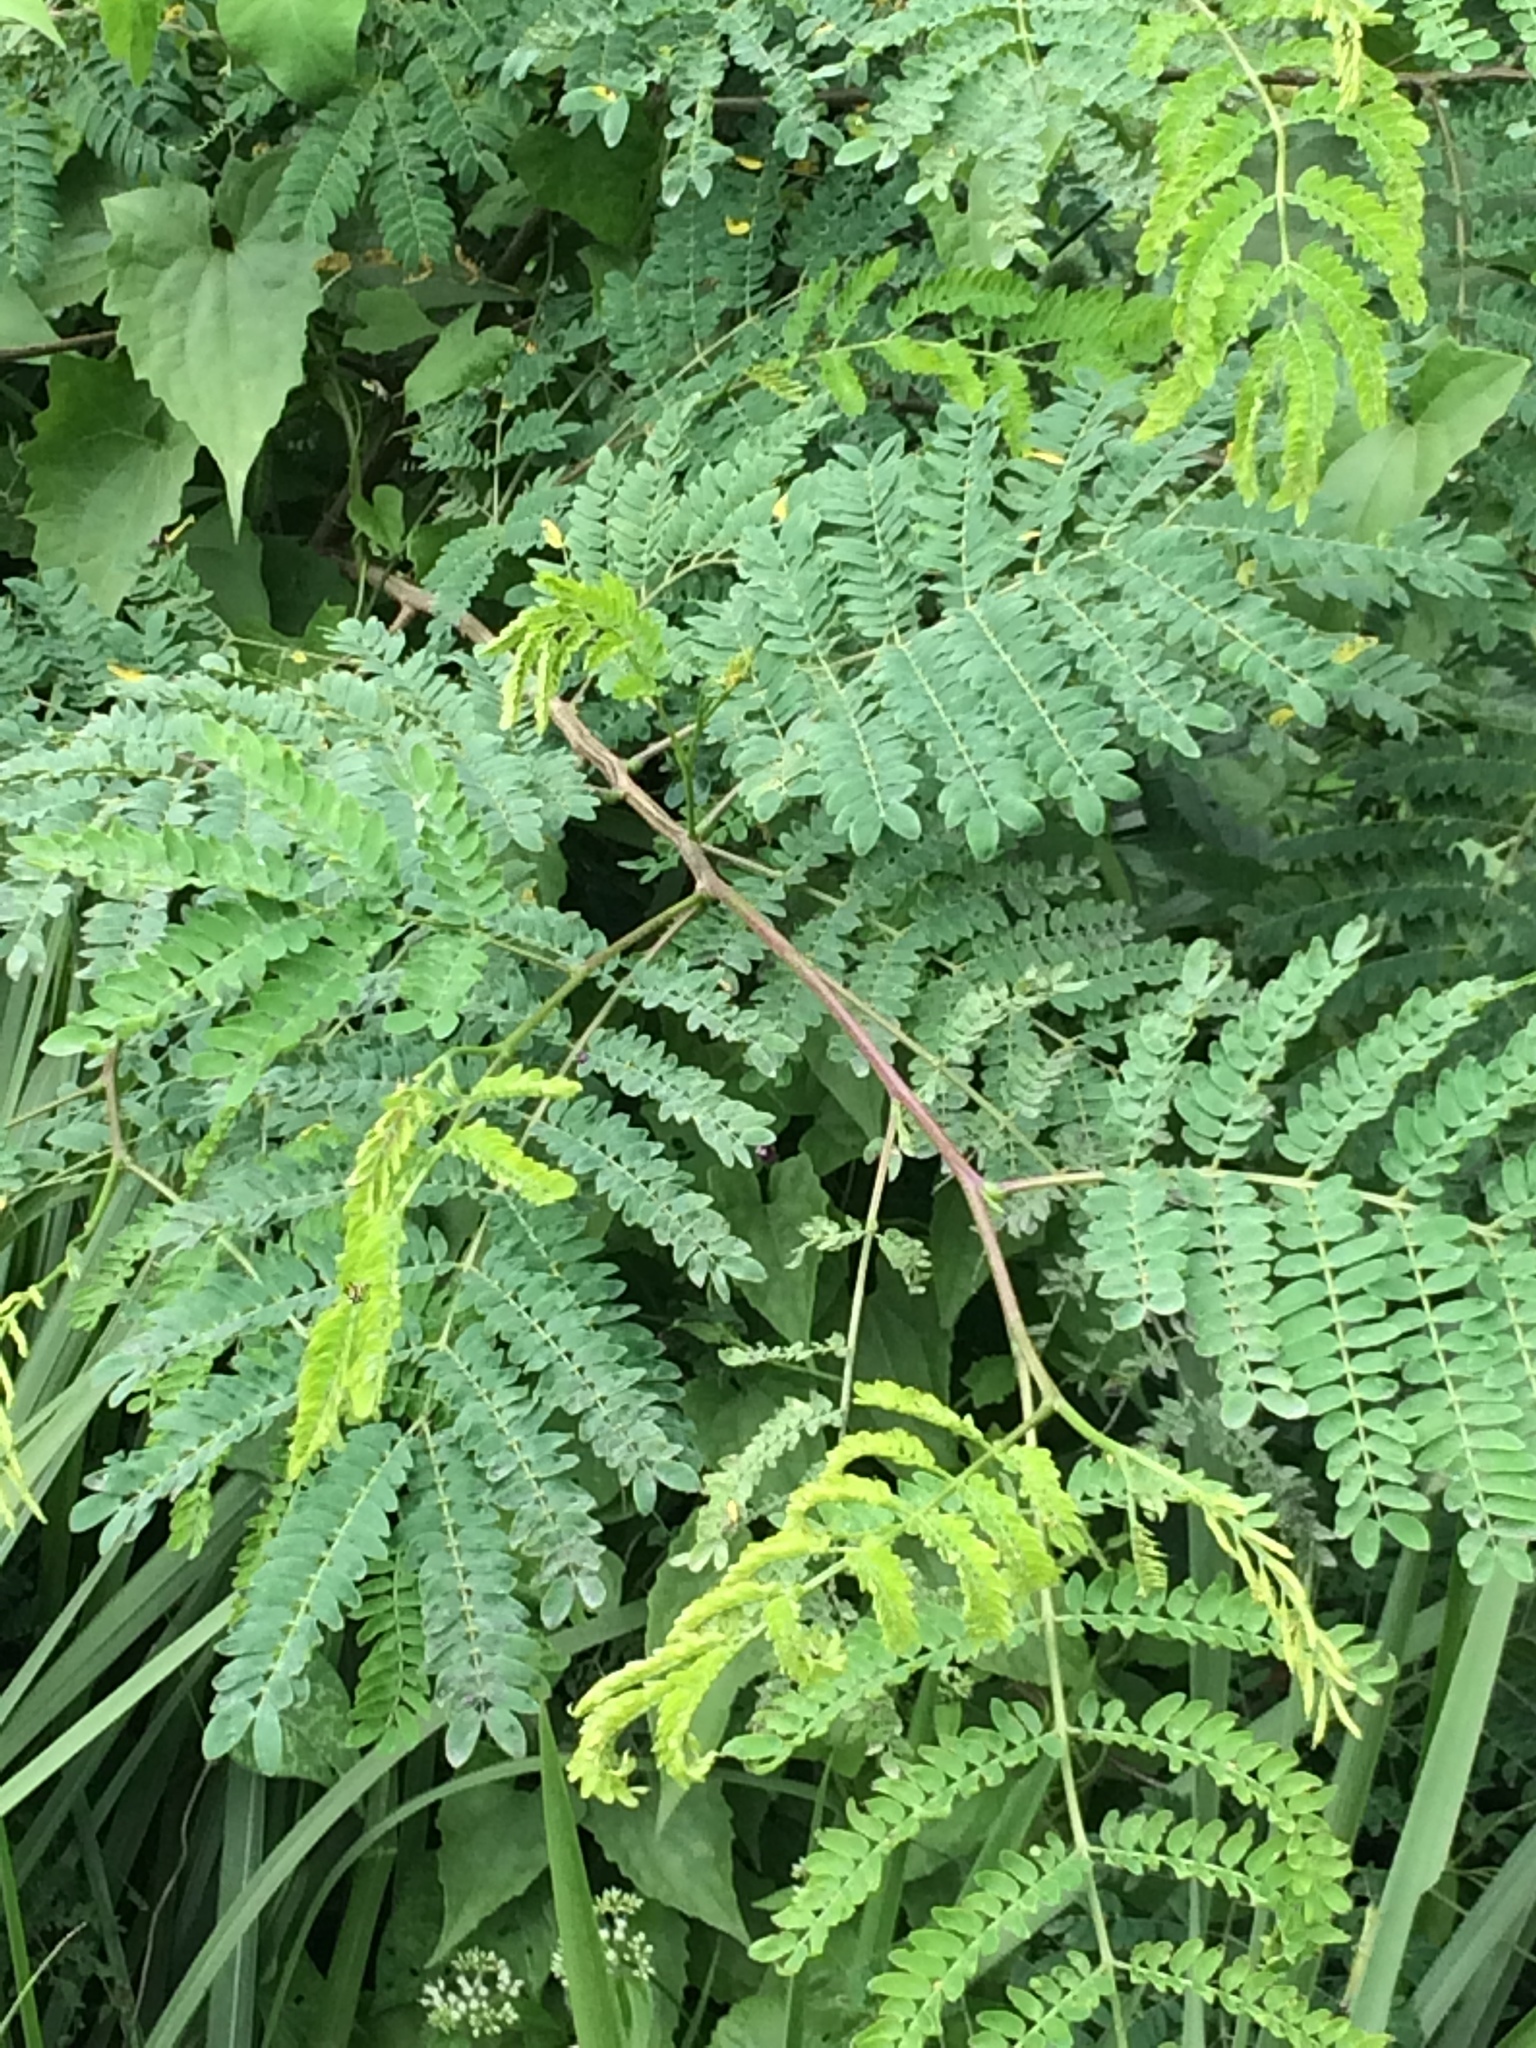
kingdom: Plantae
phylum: Tracheophyta
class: Magnoliopsida
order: Fabales
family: Fabaceae
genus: Leucaena
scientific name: Leucaena leucocephala
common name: White leadtree
